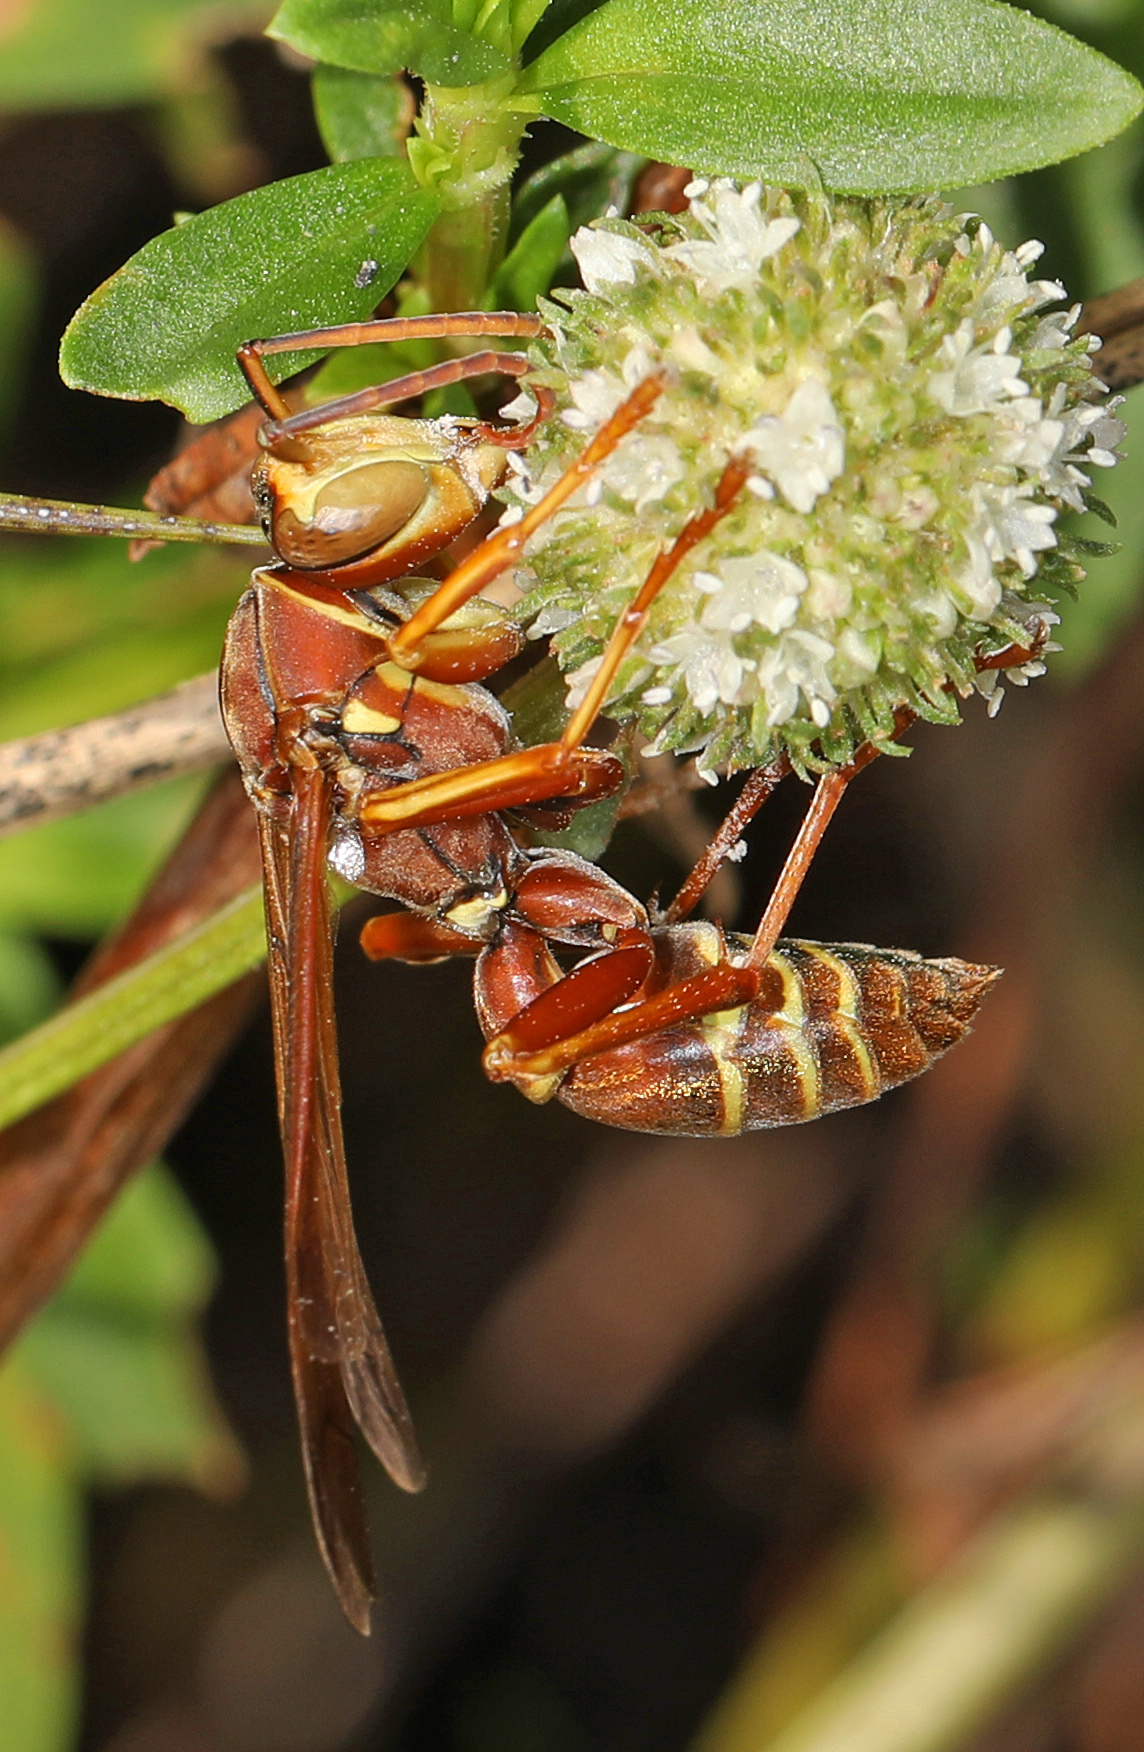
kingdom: Animalia
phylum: Arthropoda
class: Insecta
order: Hymenoptera
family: Eumenidae
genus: Polistes
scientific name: Polistes bellicosus
